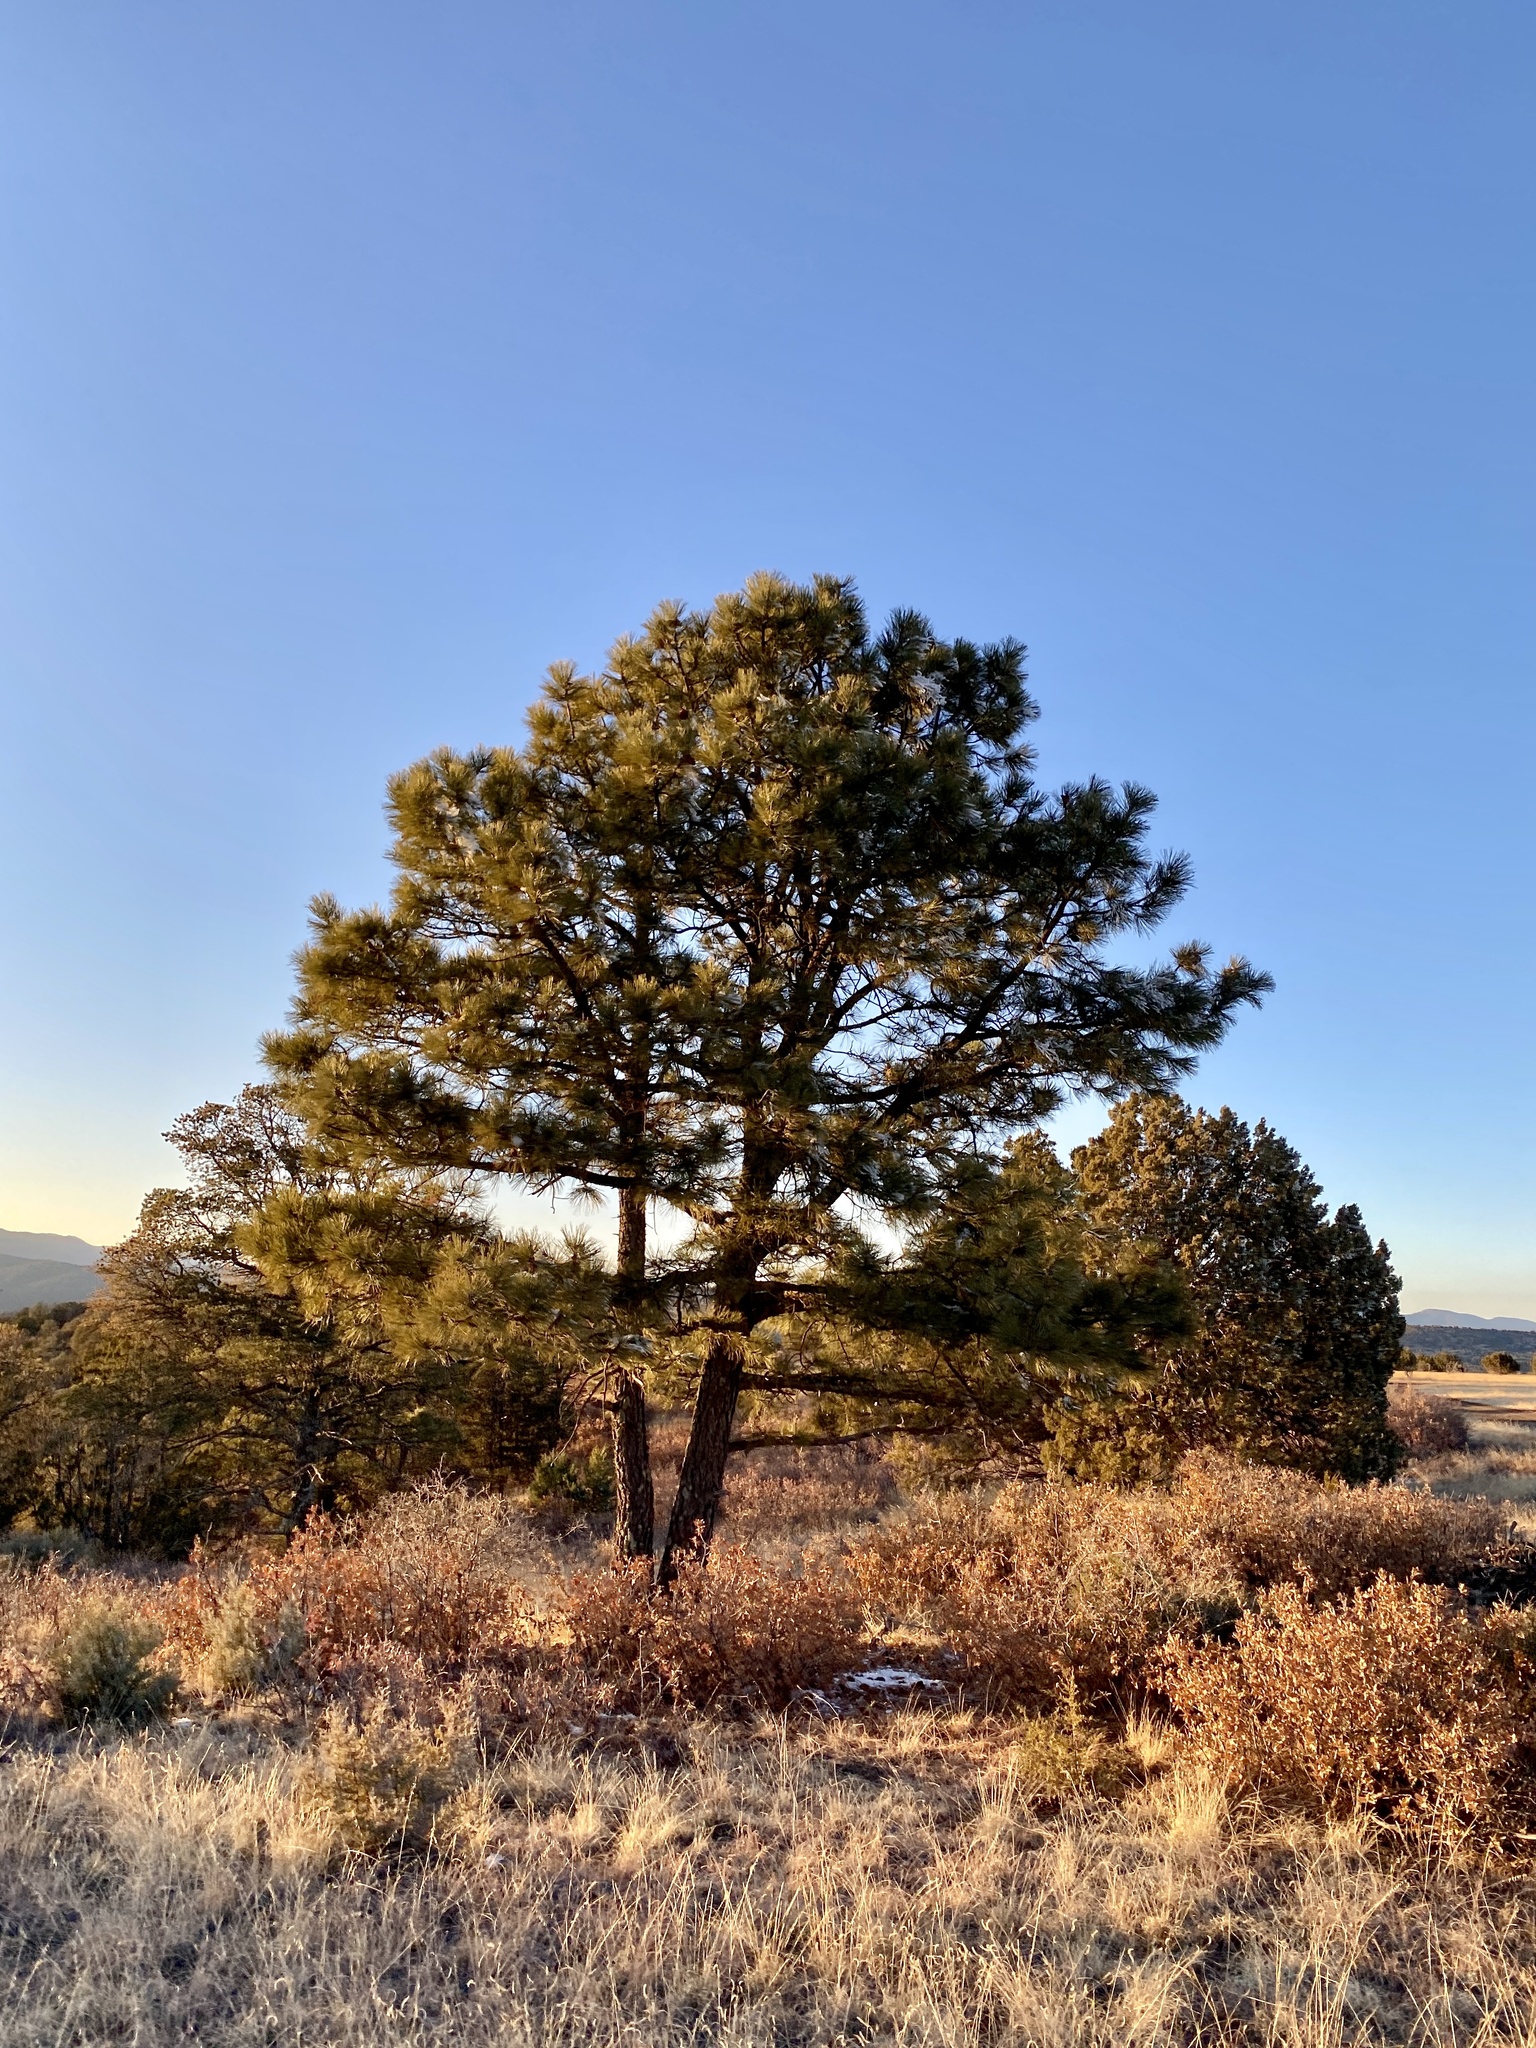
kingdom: Plantae
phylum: Tracheophyta
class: Pinopsida
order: Pinales
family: Pinaceae
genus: Pinus
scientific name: Pinus ponderosa
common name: Western yellow-pine
